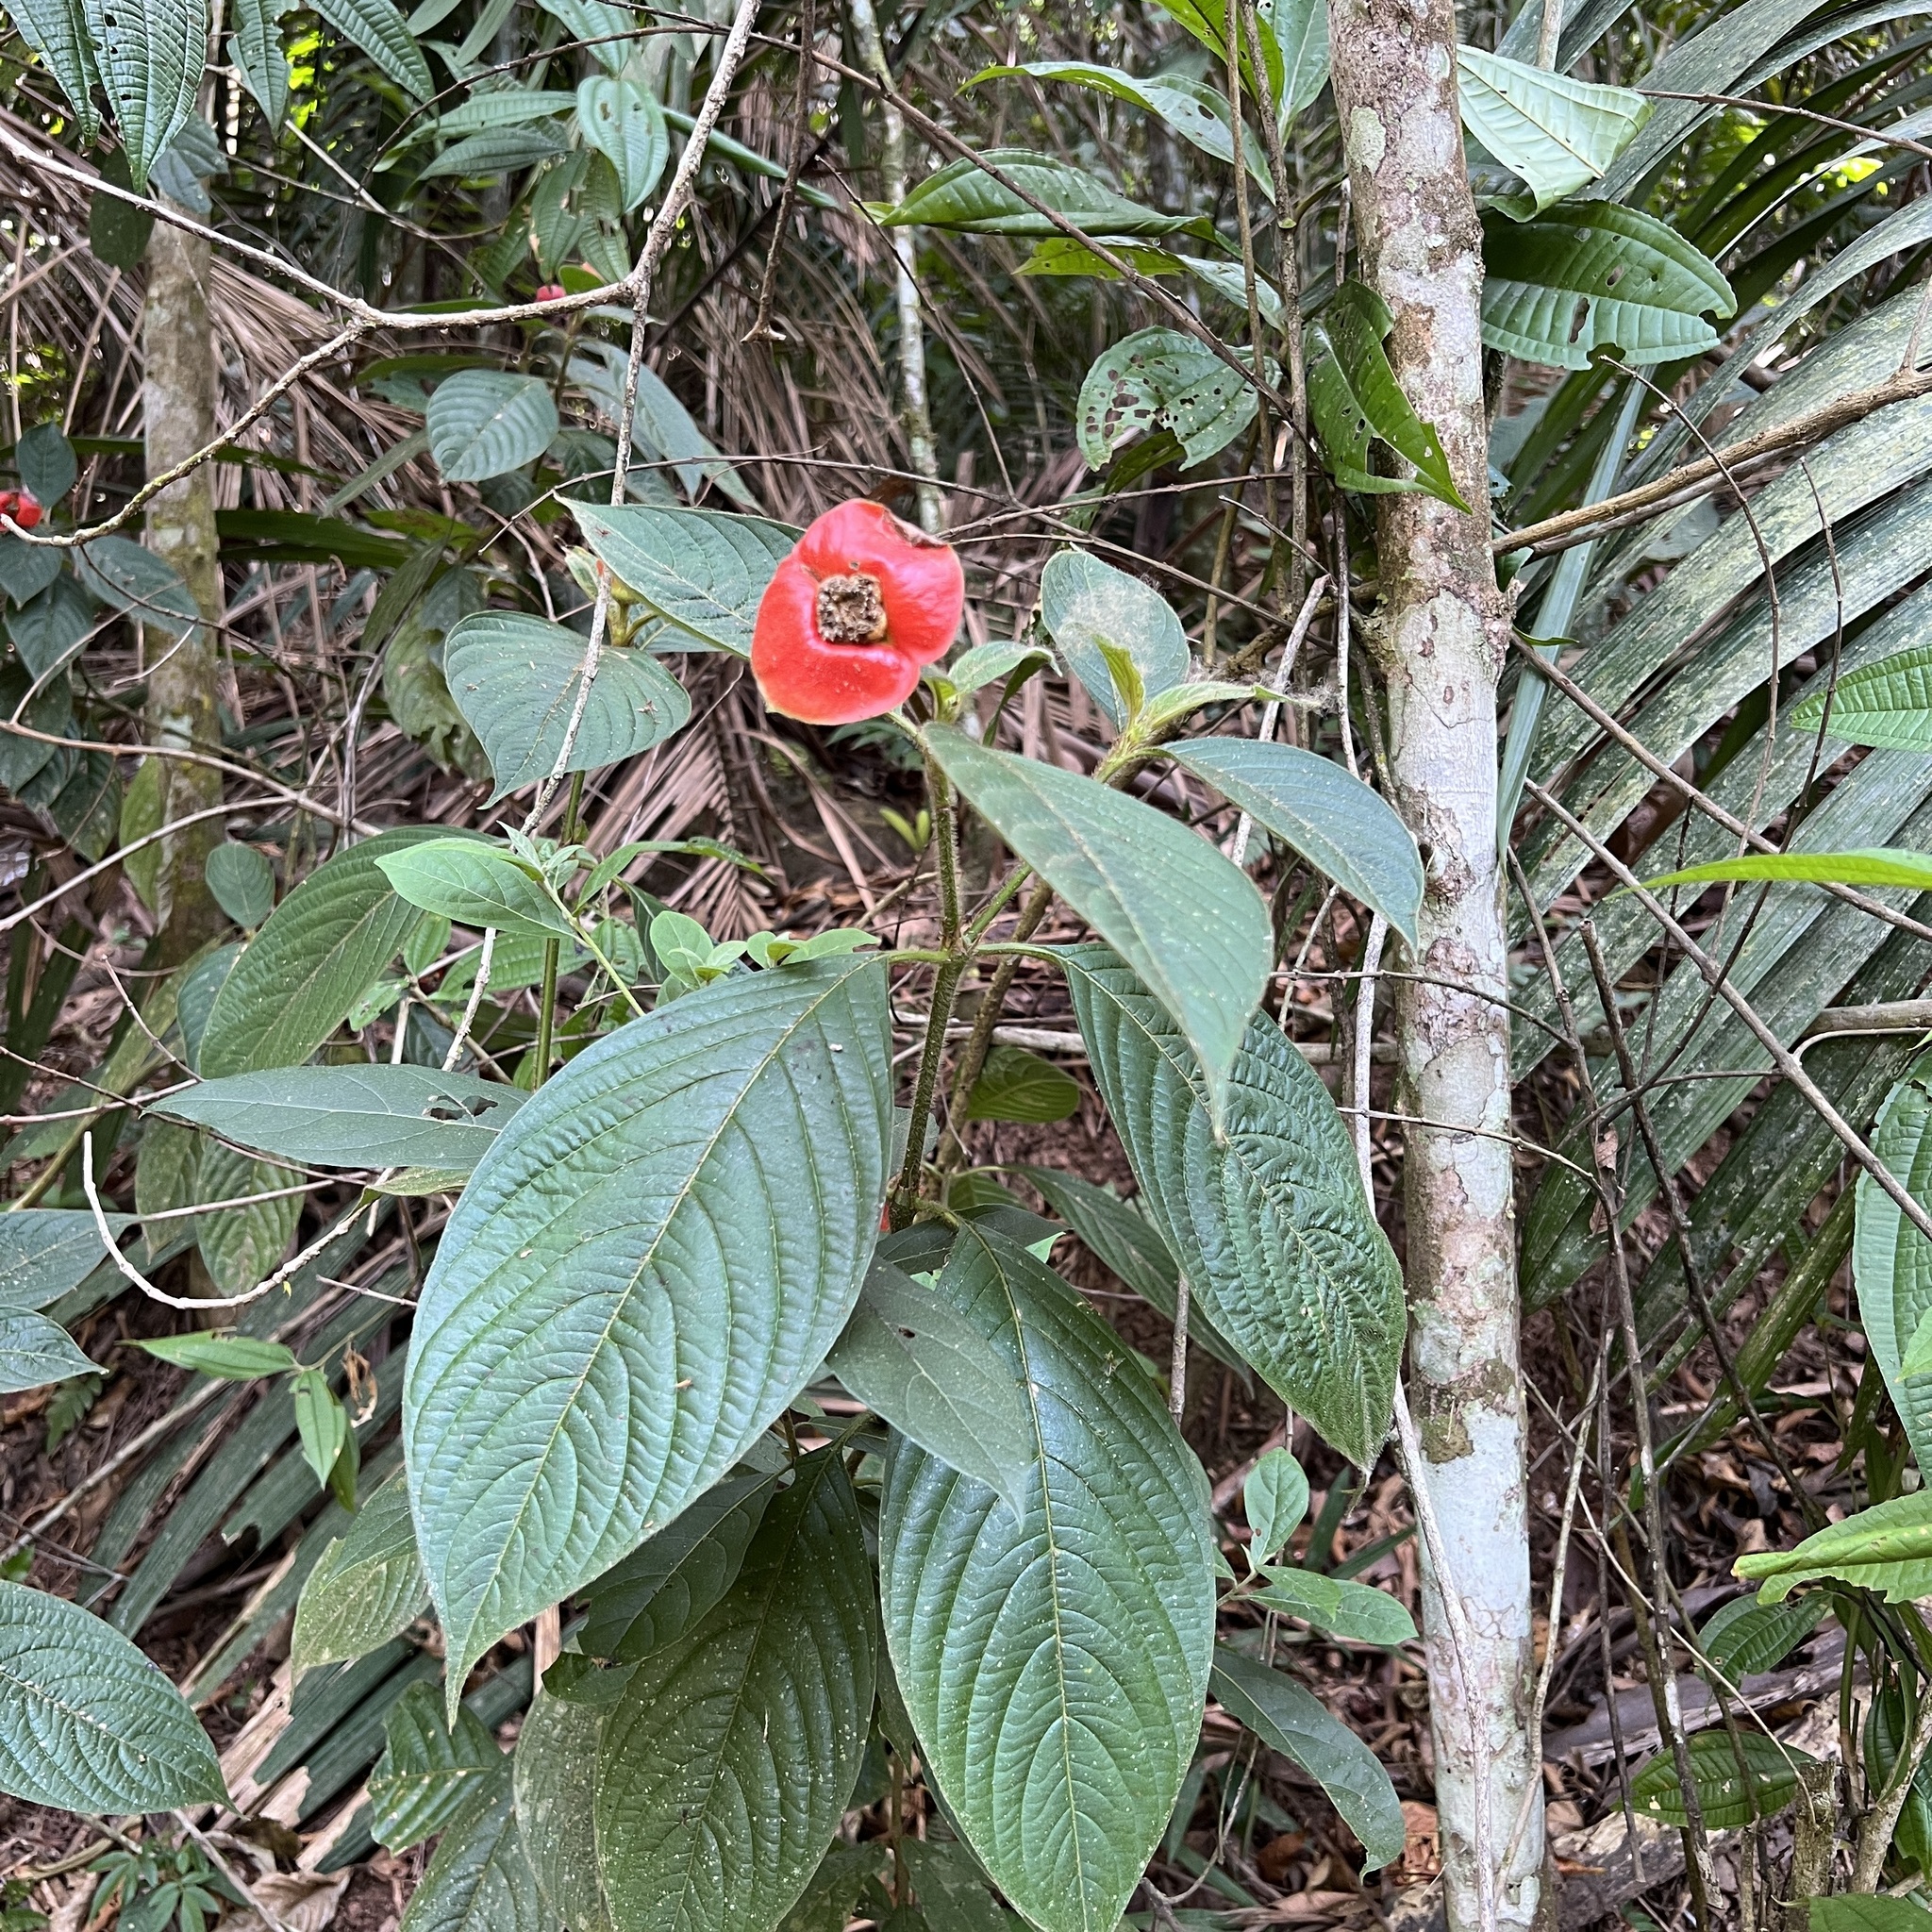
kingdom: Plantae
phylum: Tracheophyta
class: Magnoliopsida
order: Gentianales
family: Rubiaceae
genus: Palicourea
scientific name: Palicourea tomentosa
